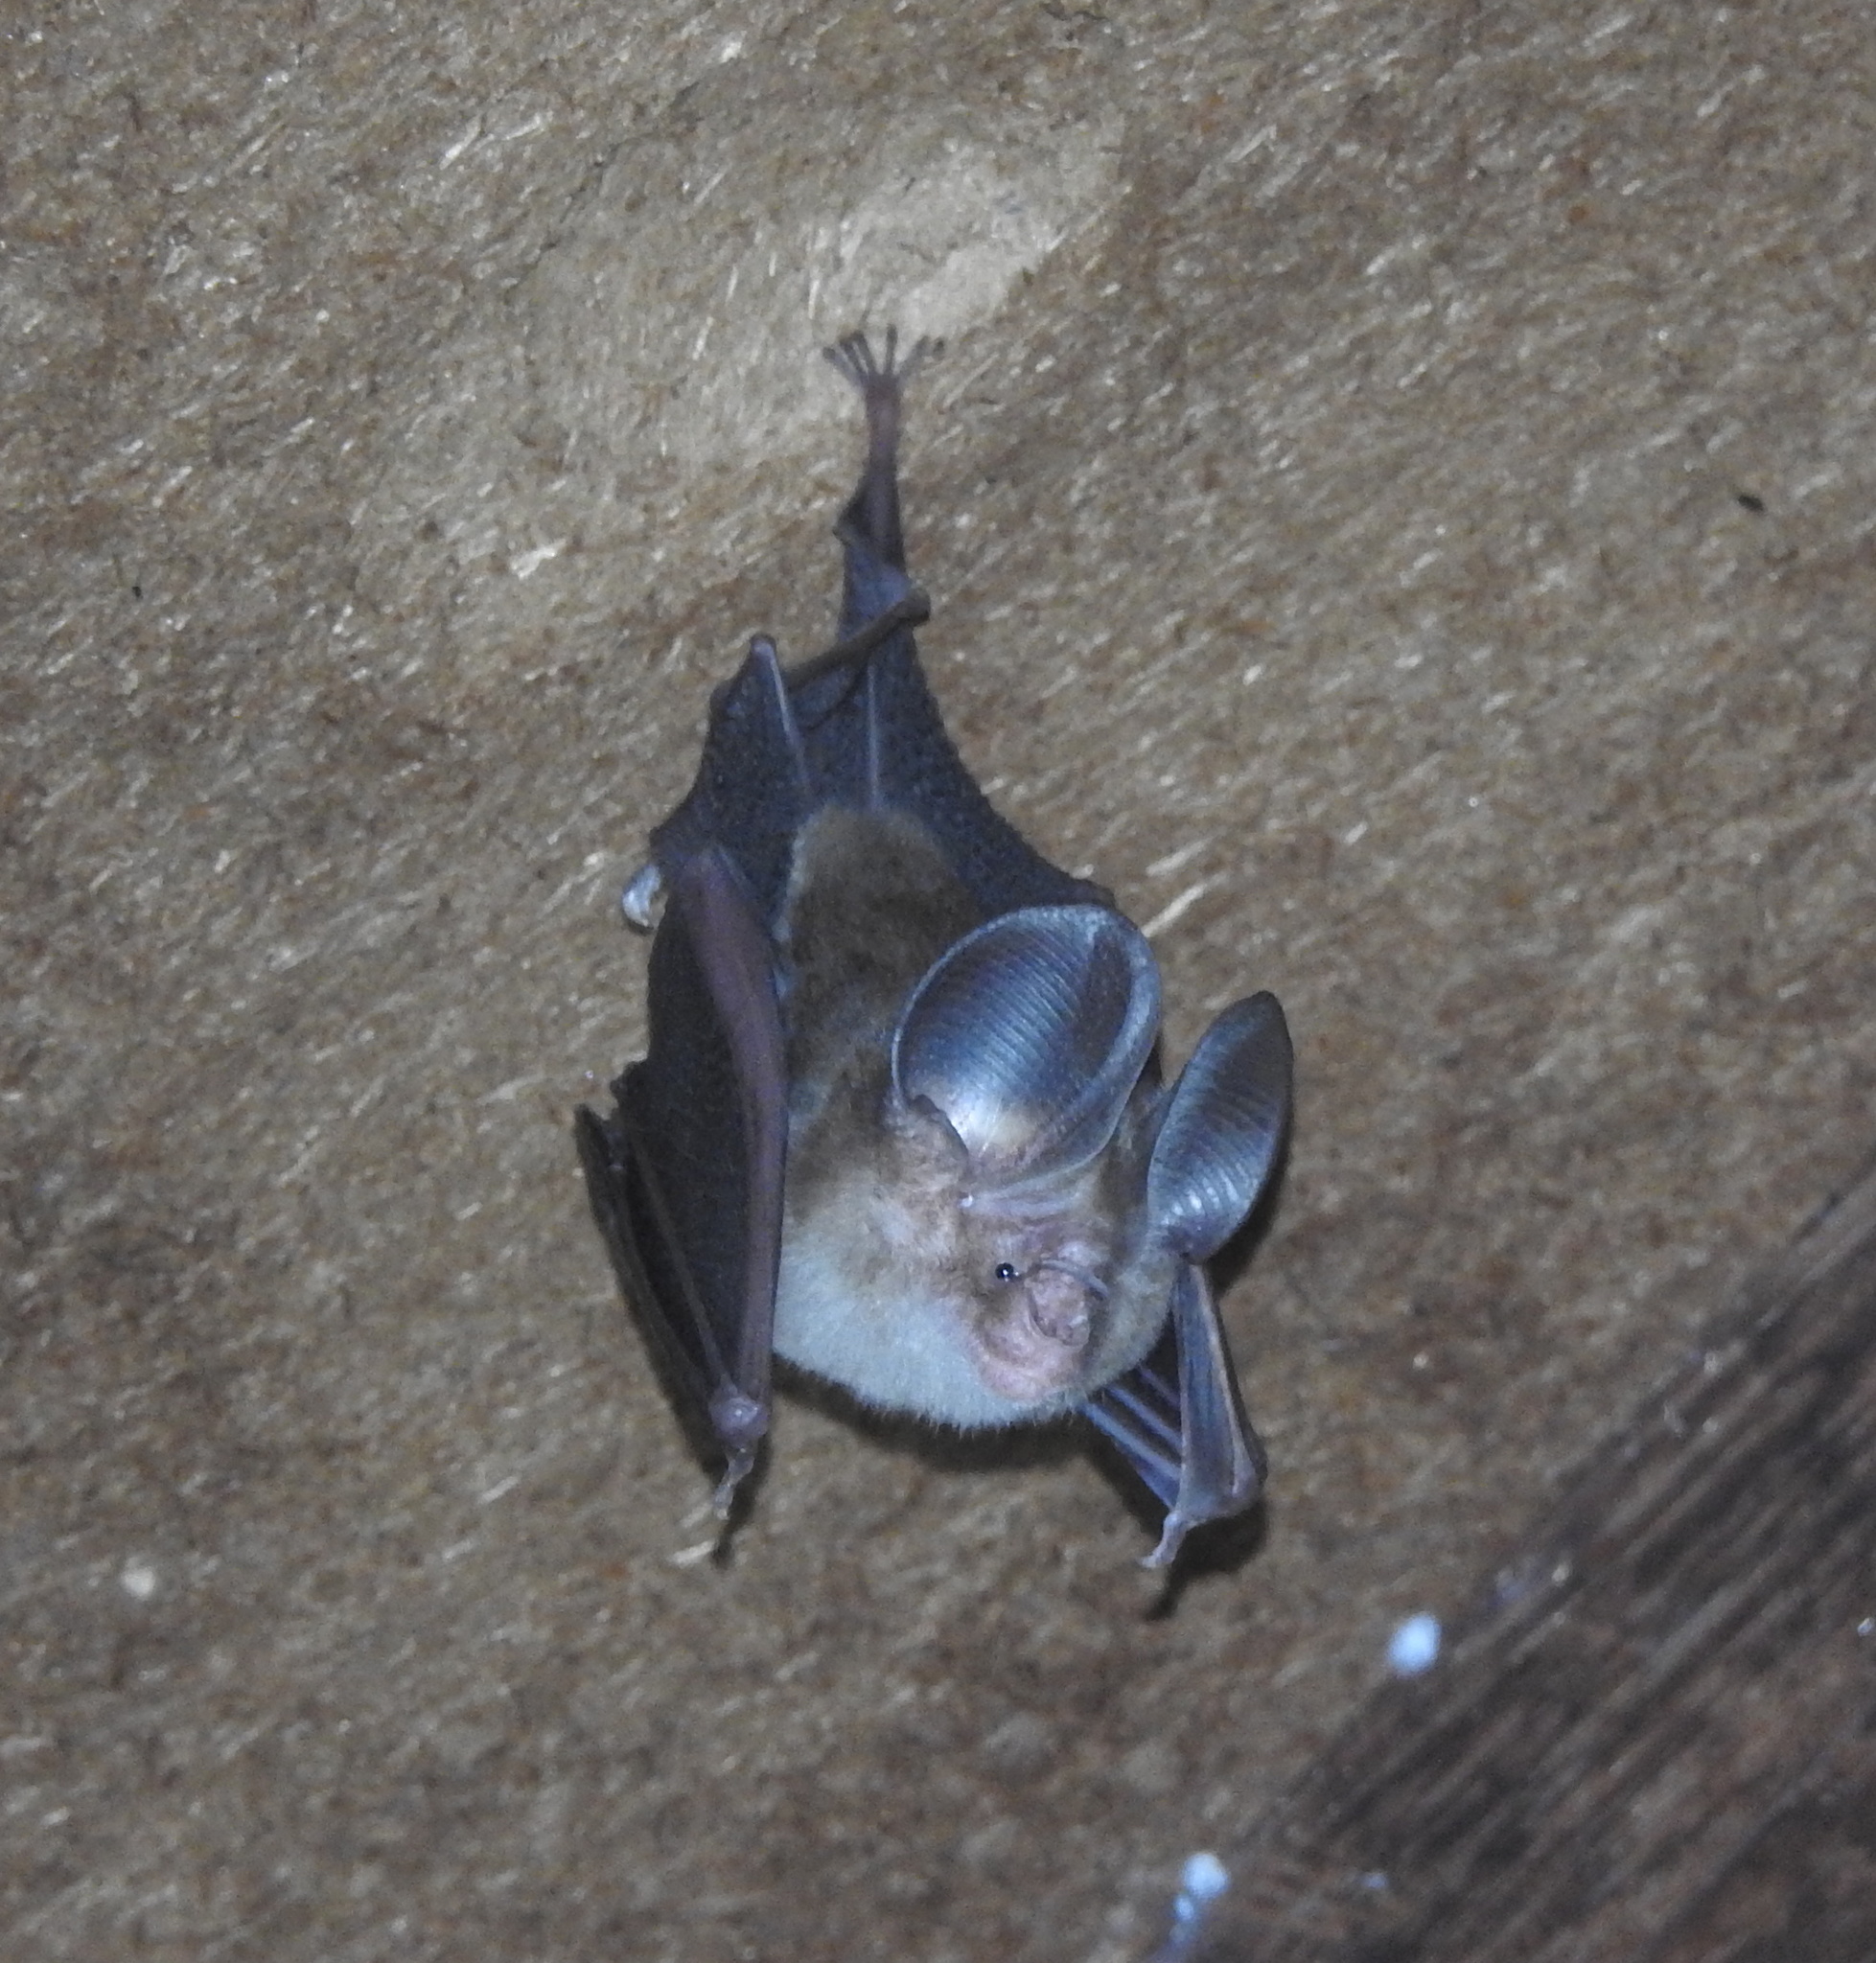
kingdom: Animalia
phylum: Chordata
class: Mammalia
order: Chiroptera
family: Hipposideridae
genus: Hipposideros
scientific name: Hipposideros fulvus
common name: Fulvus leaf-nosed bat
